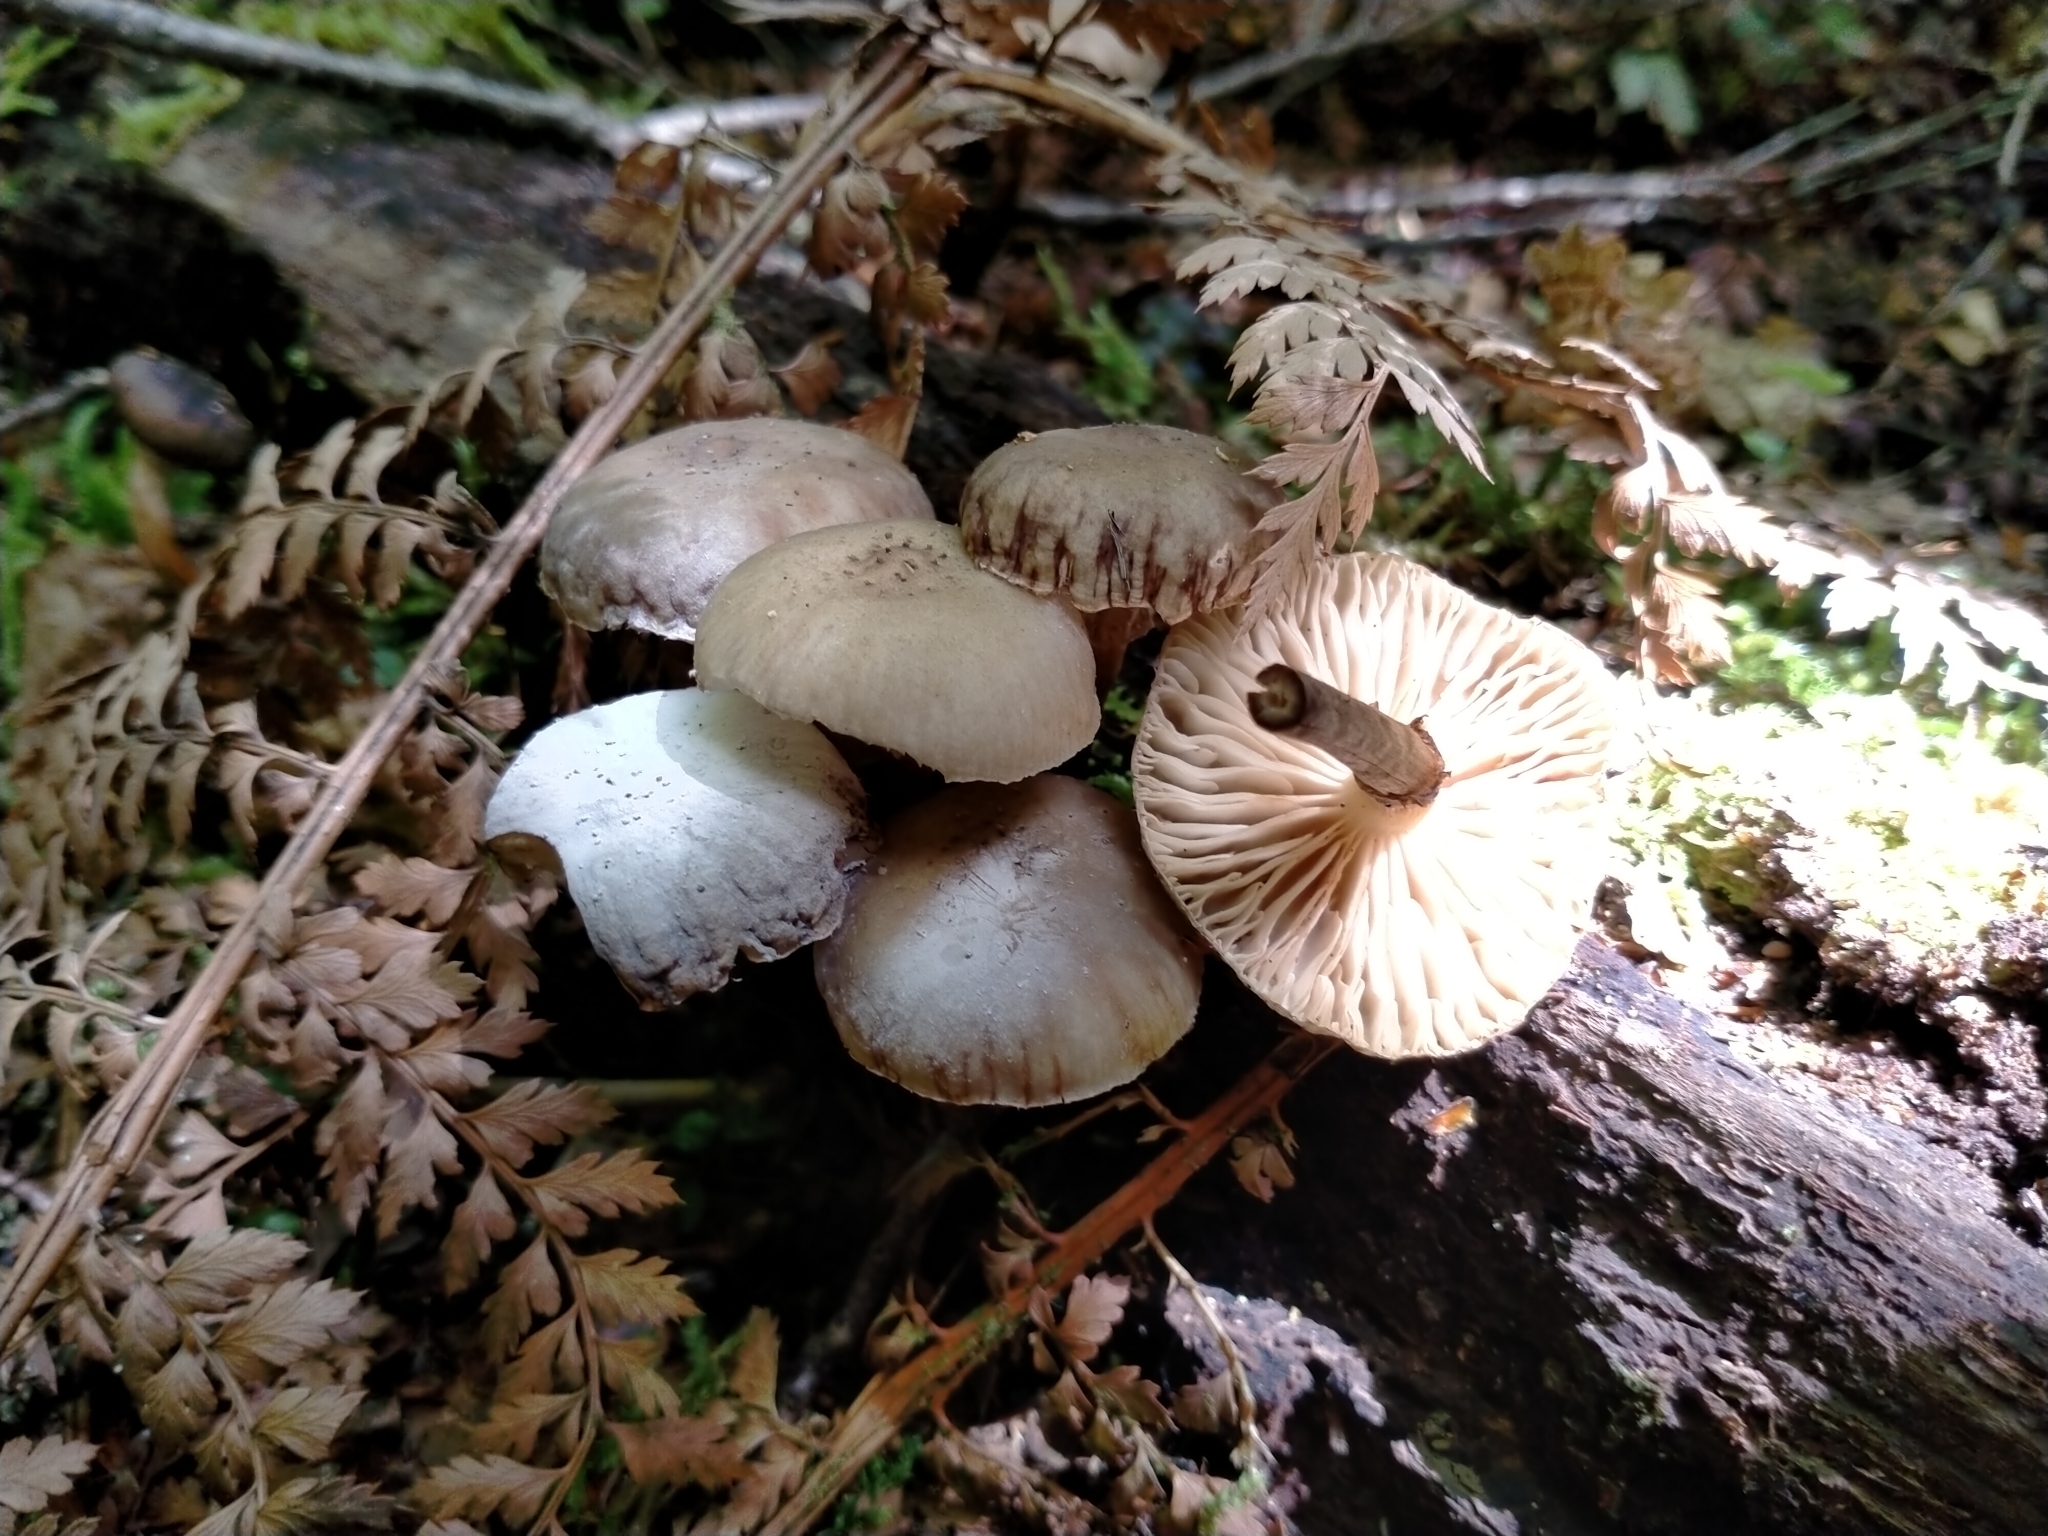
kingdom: Fungi
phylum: Basidiomycota
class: Agaricomycetes
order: Agaricales
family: Physalacriaceae
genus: Armillaria
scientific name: Armillaria novae-zelandiae
